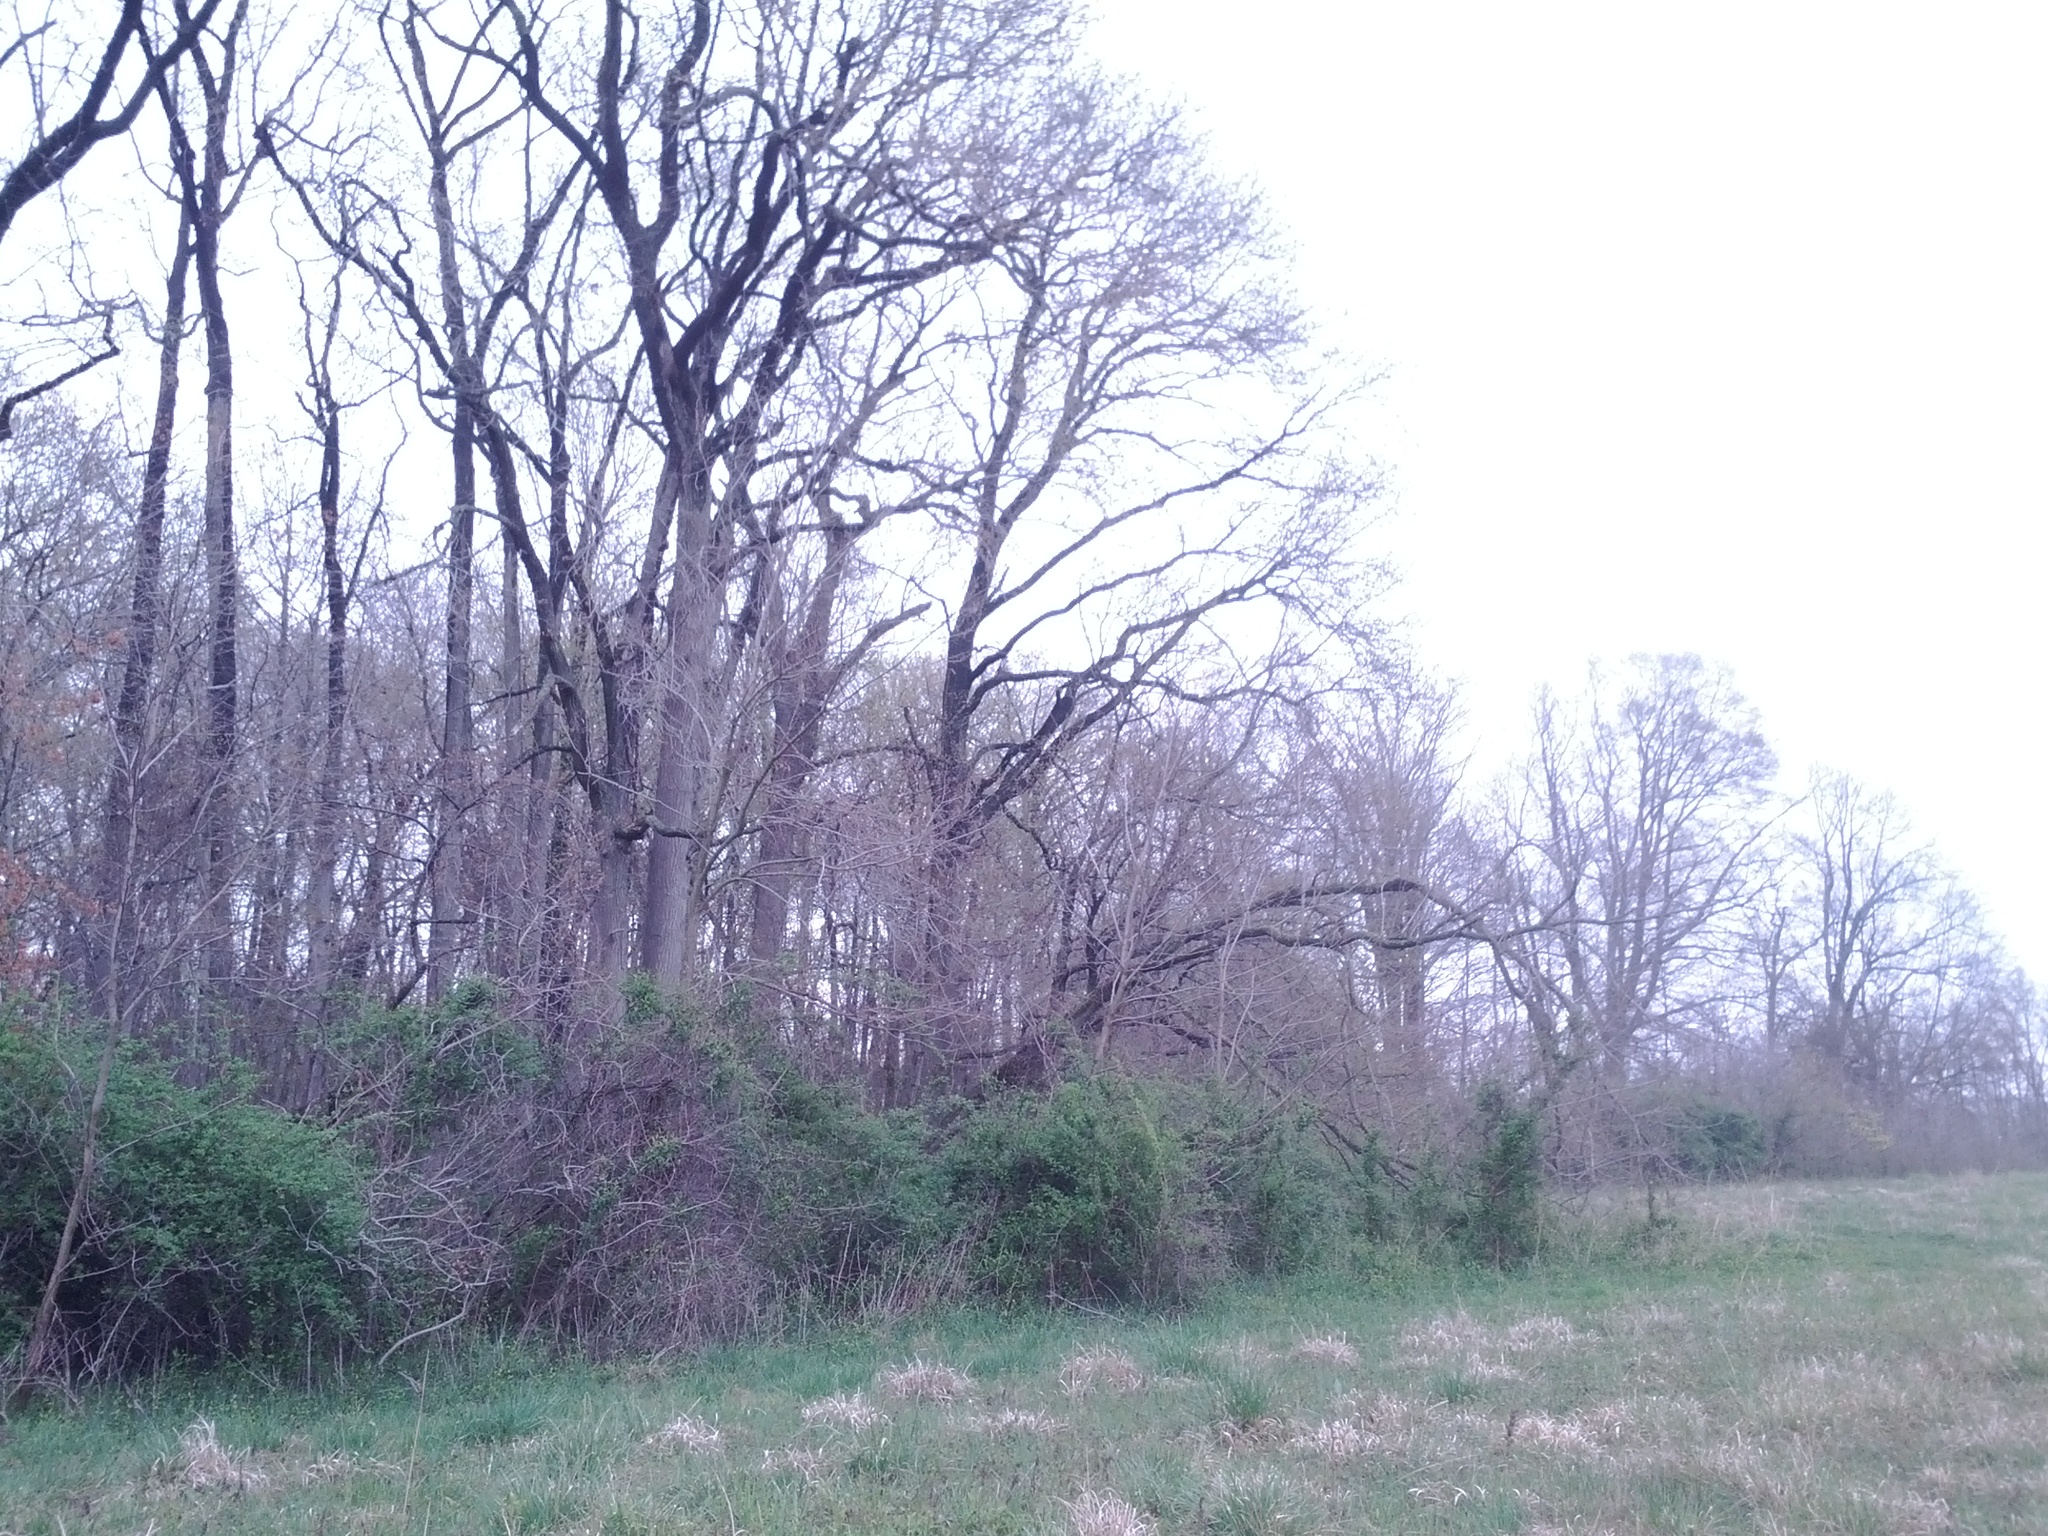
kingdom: Animalia
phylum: Chordata
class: Aves
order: Passeriformes
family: Turdidae
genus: Sialia
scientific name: Sialia sialis
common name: Eastern bluebird
